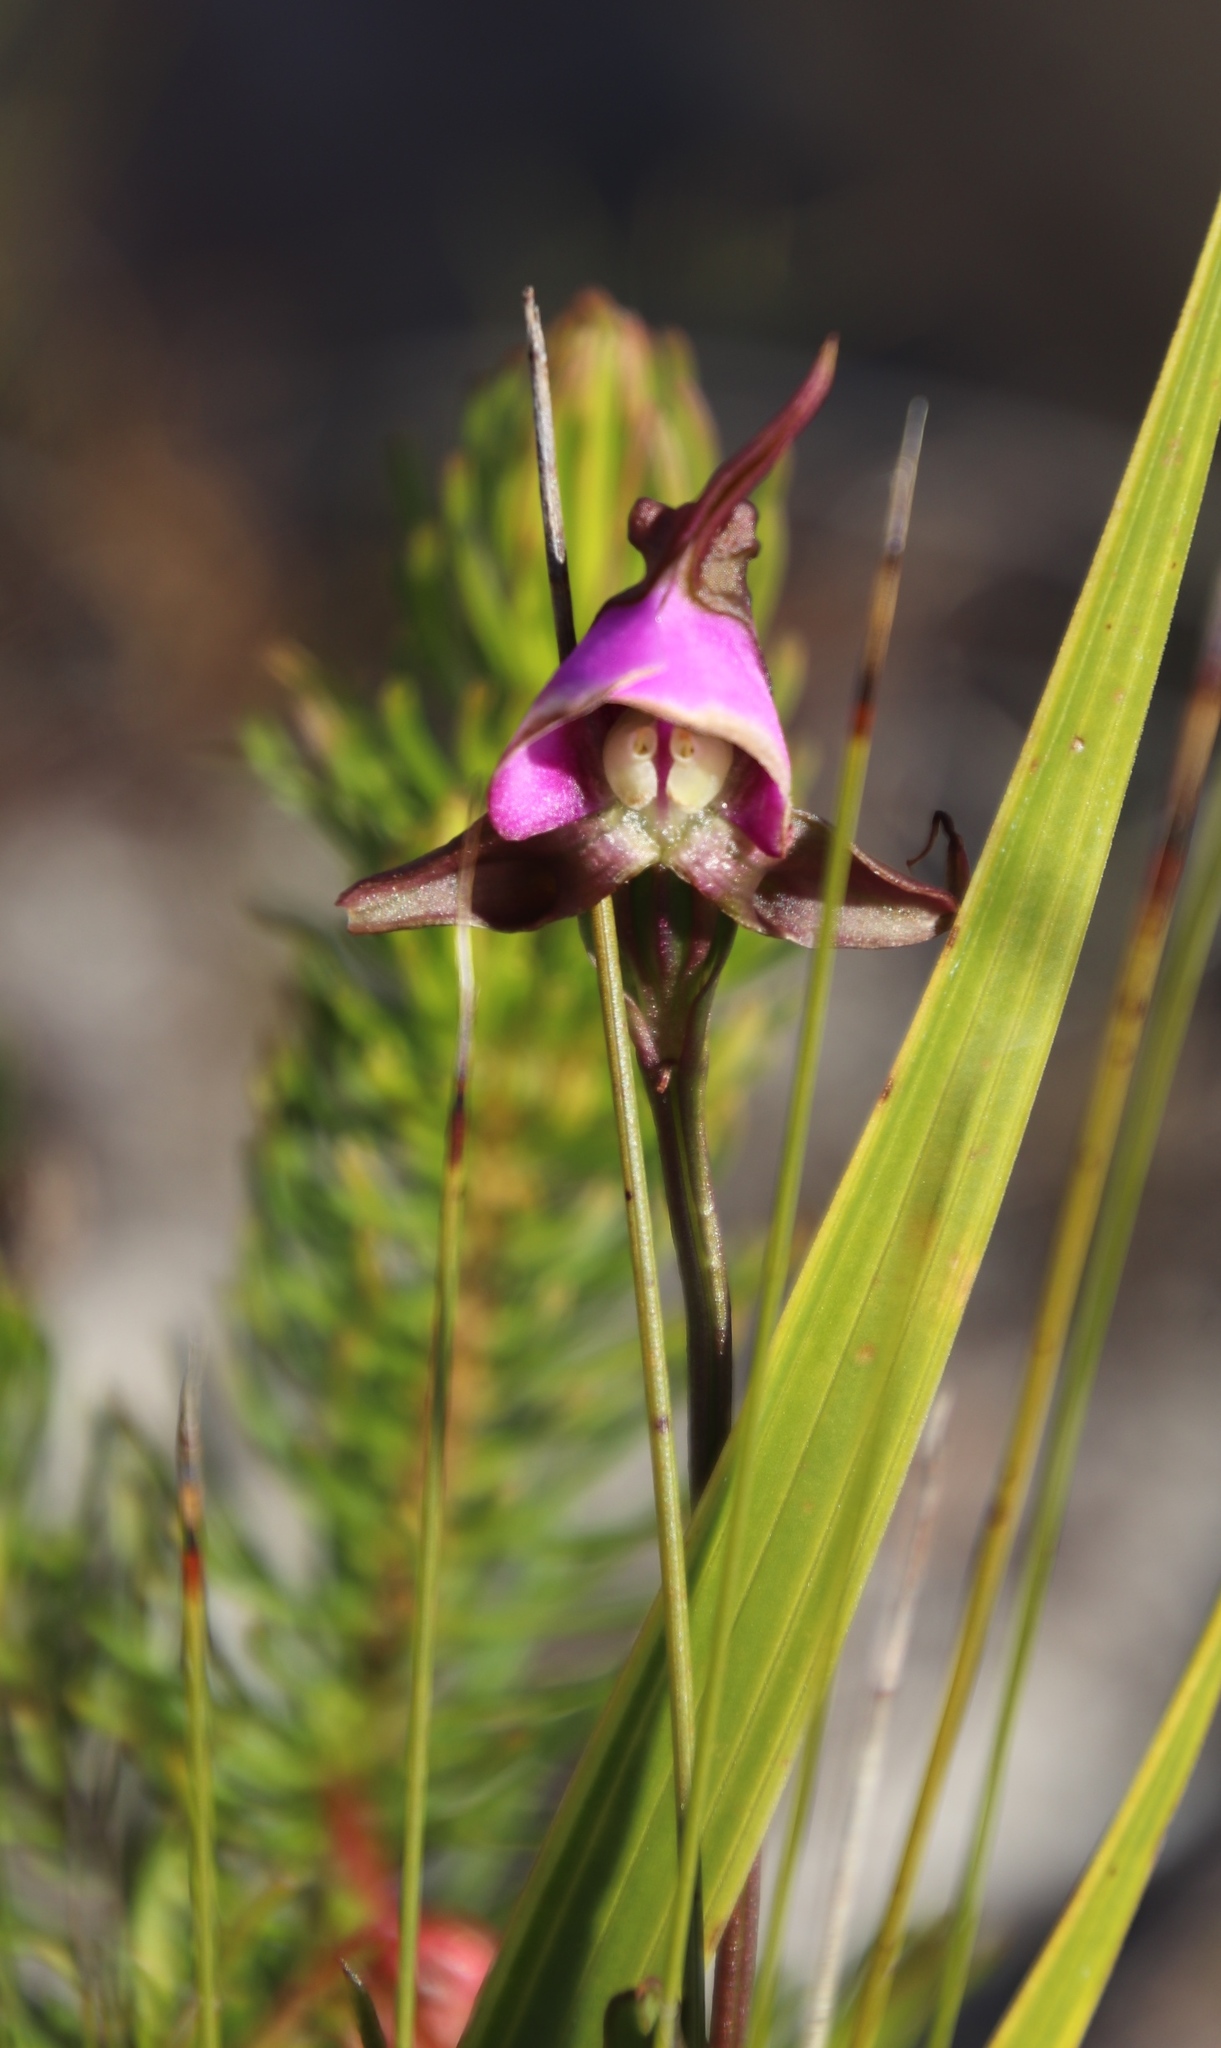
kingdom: Plantae
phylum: Tracheophyta
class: Liliopsida
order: Asparagales
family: Orchidaceae
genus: Disperis
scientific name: Disperis capensis
